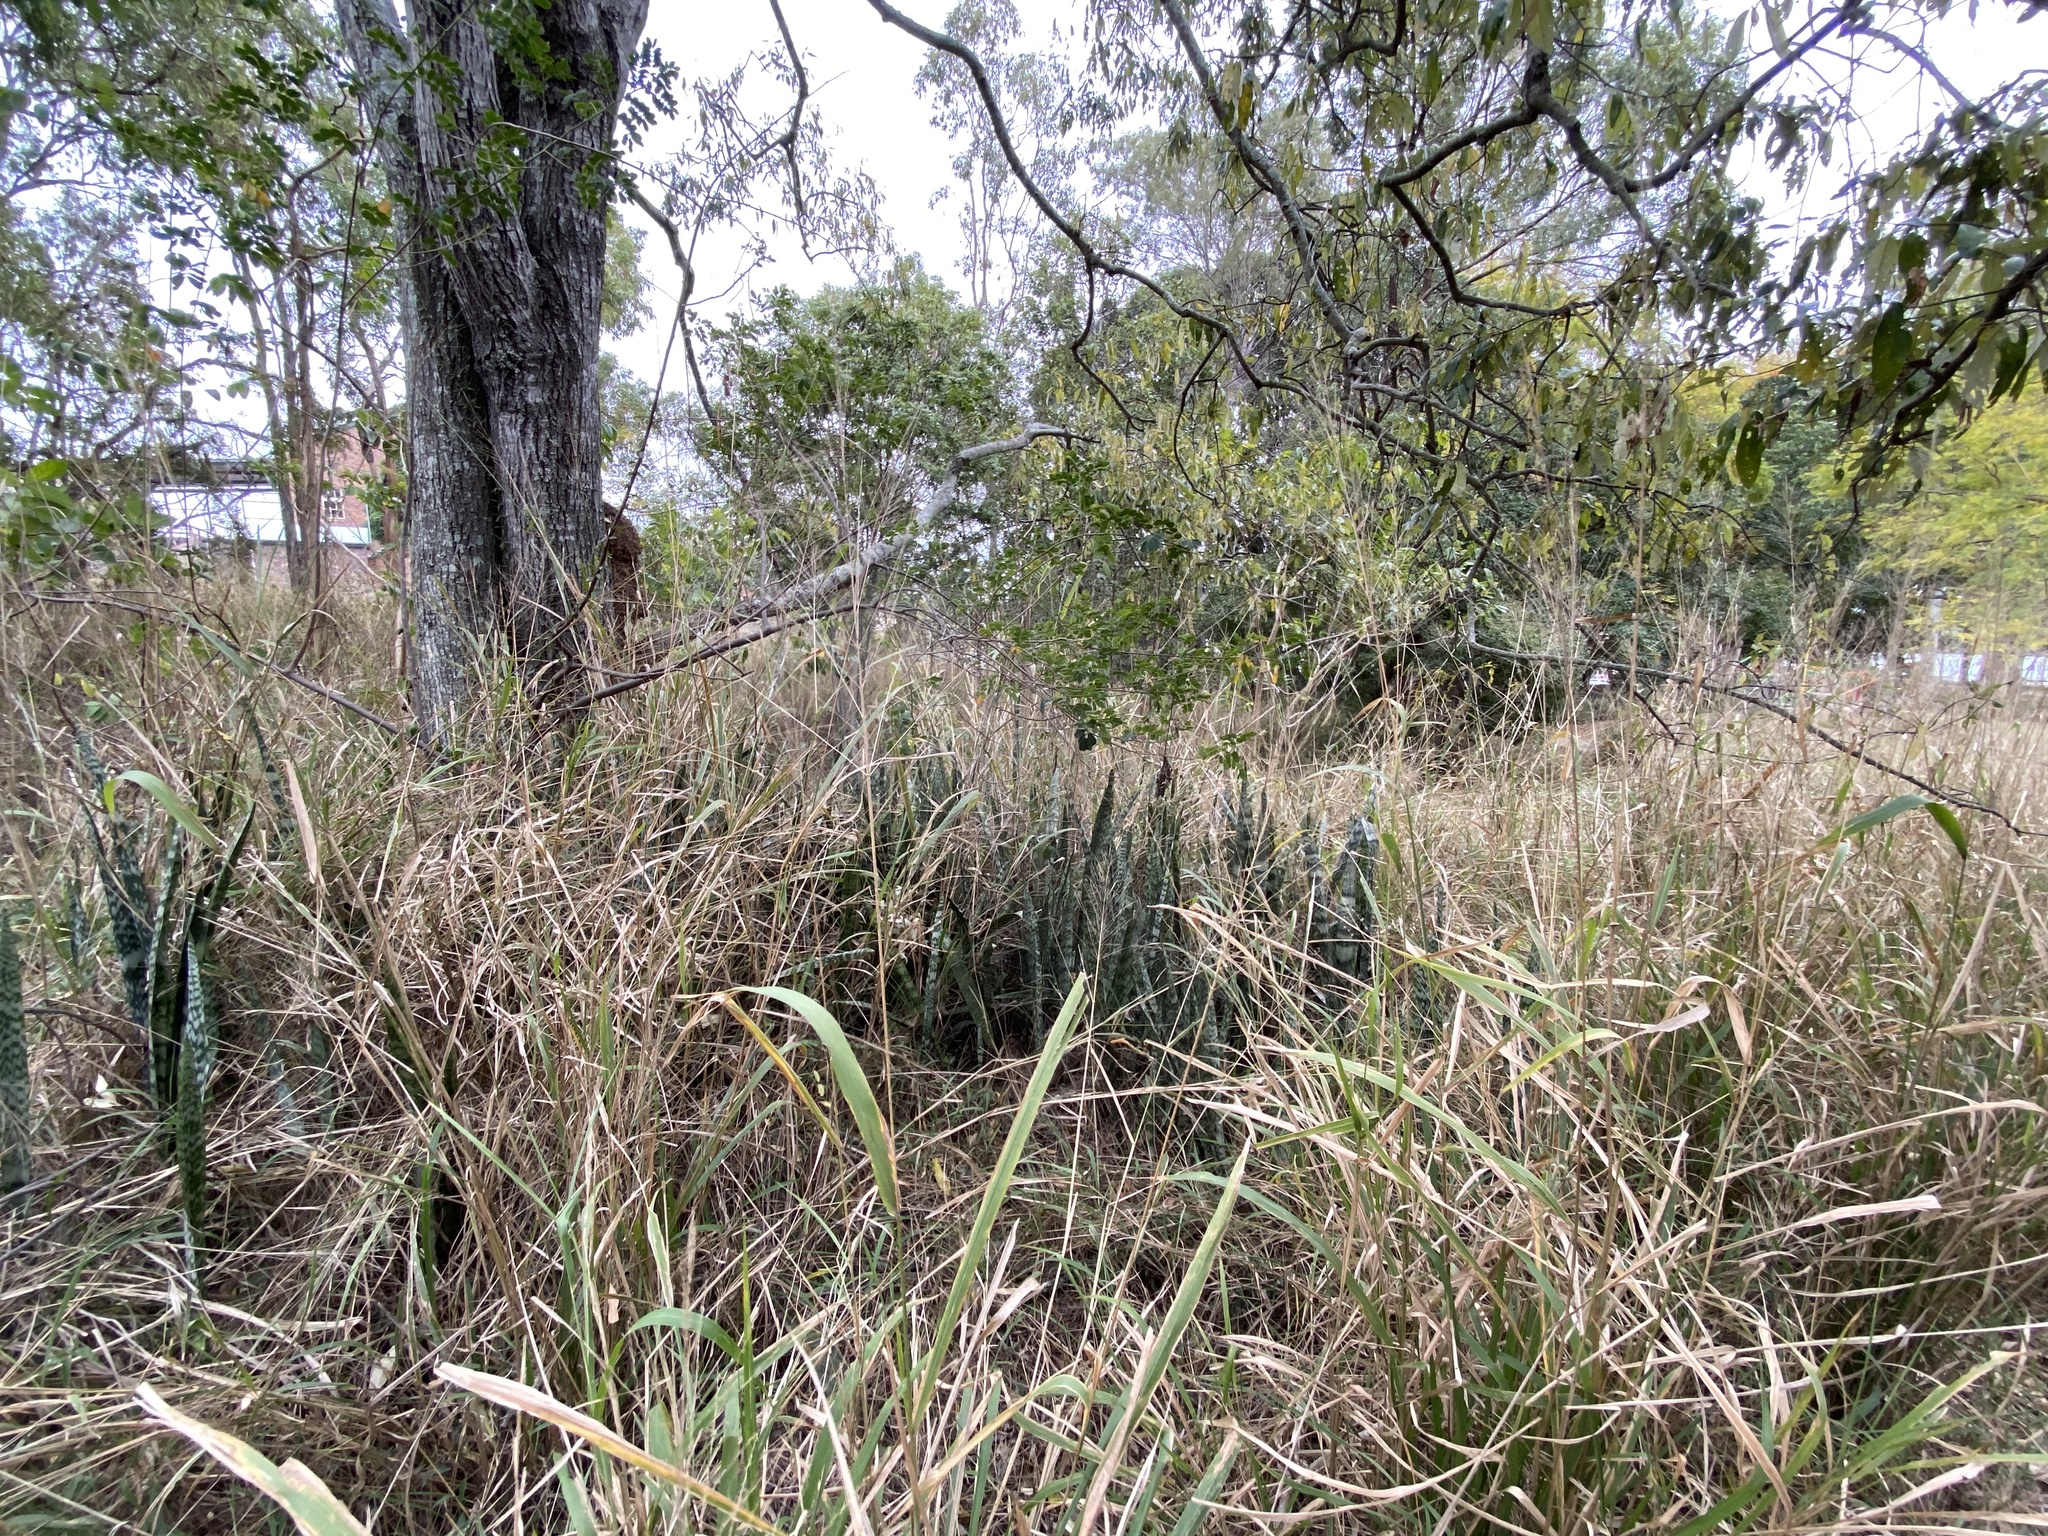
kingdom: Plantae
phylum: Tracheophyta
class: Liliopsida
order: Asparagales
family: Asparagaceae
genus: Dracaena
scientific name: Dracaena trifasciata
